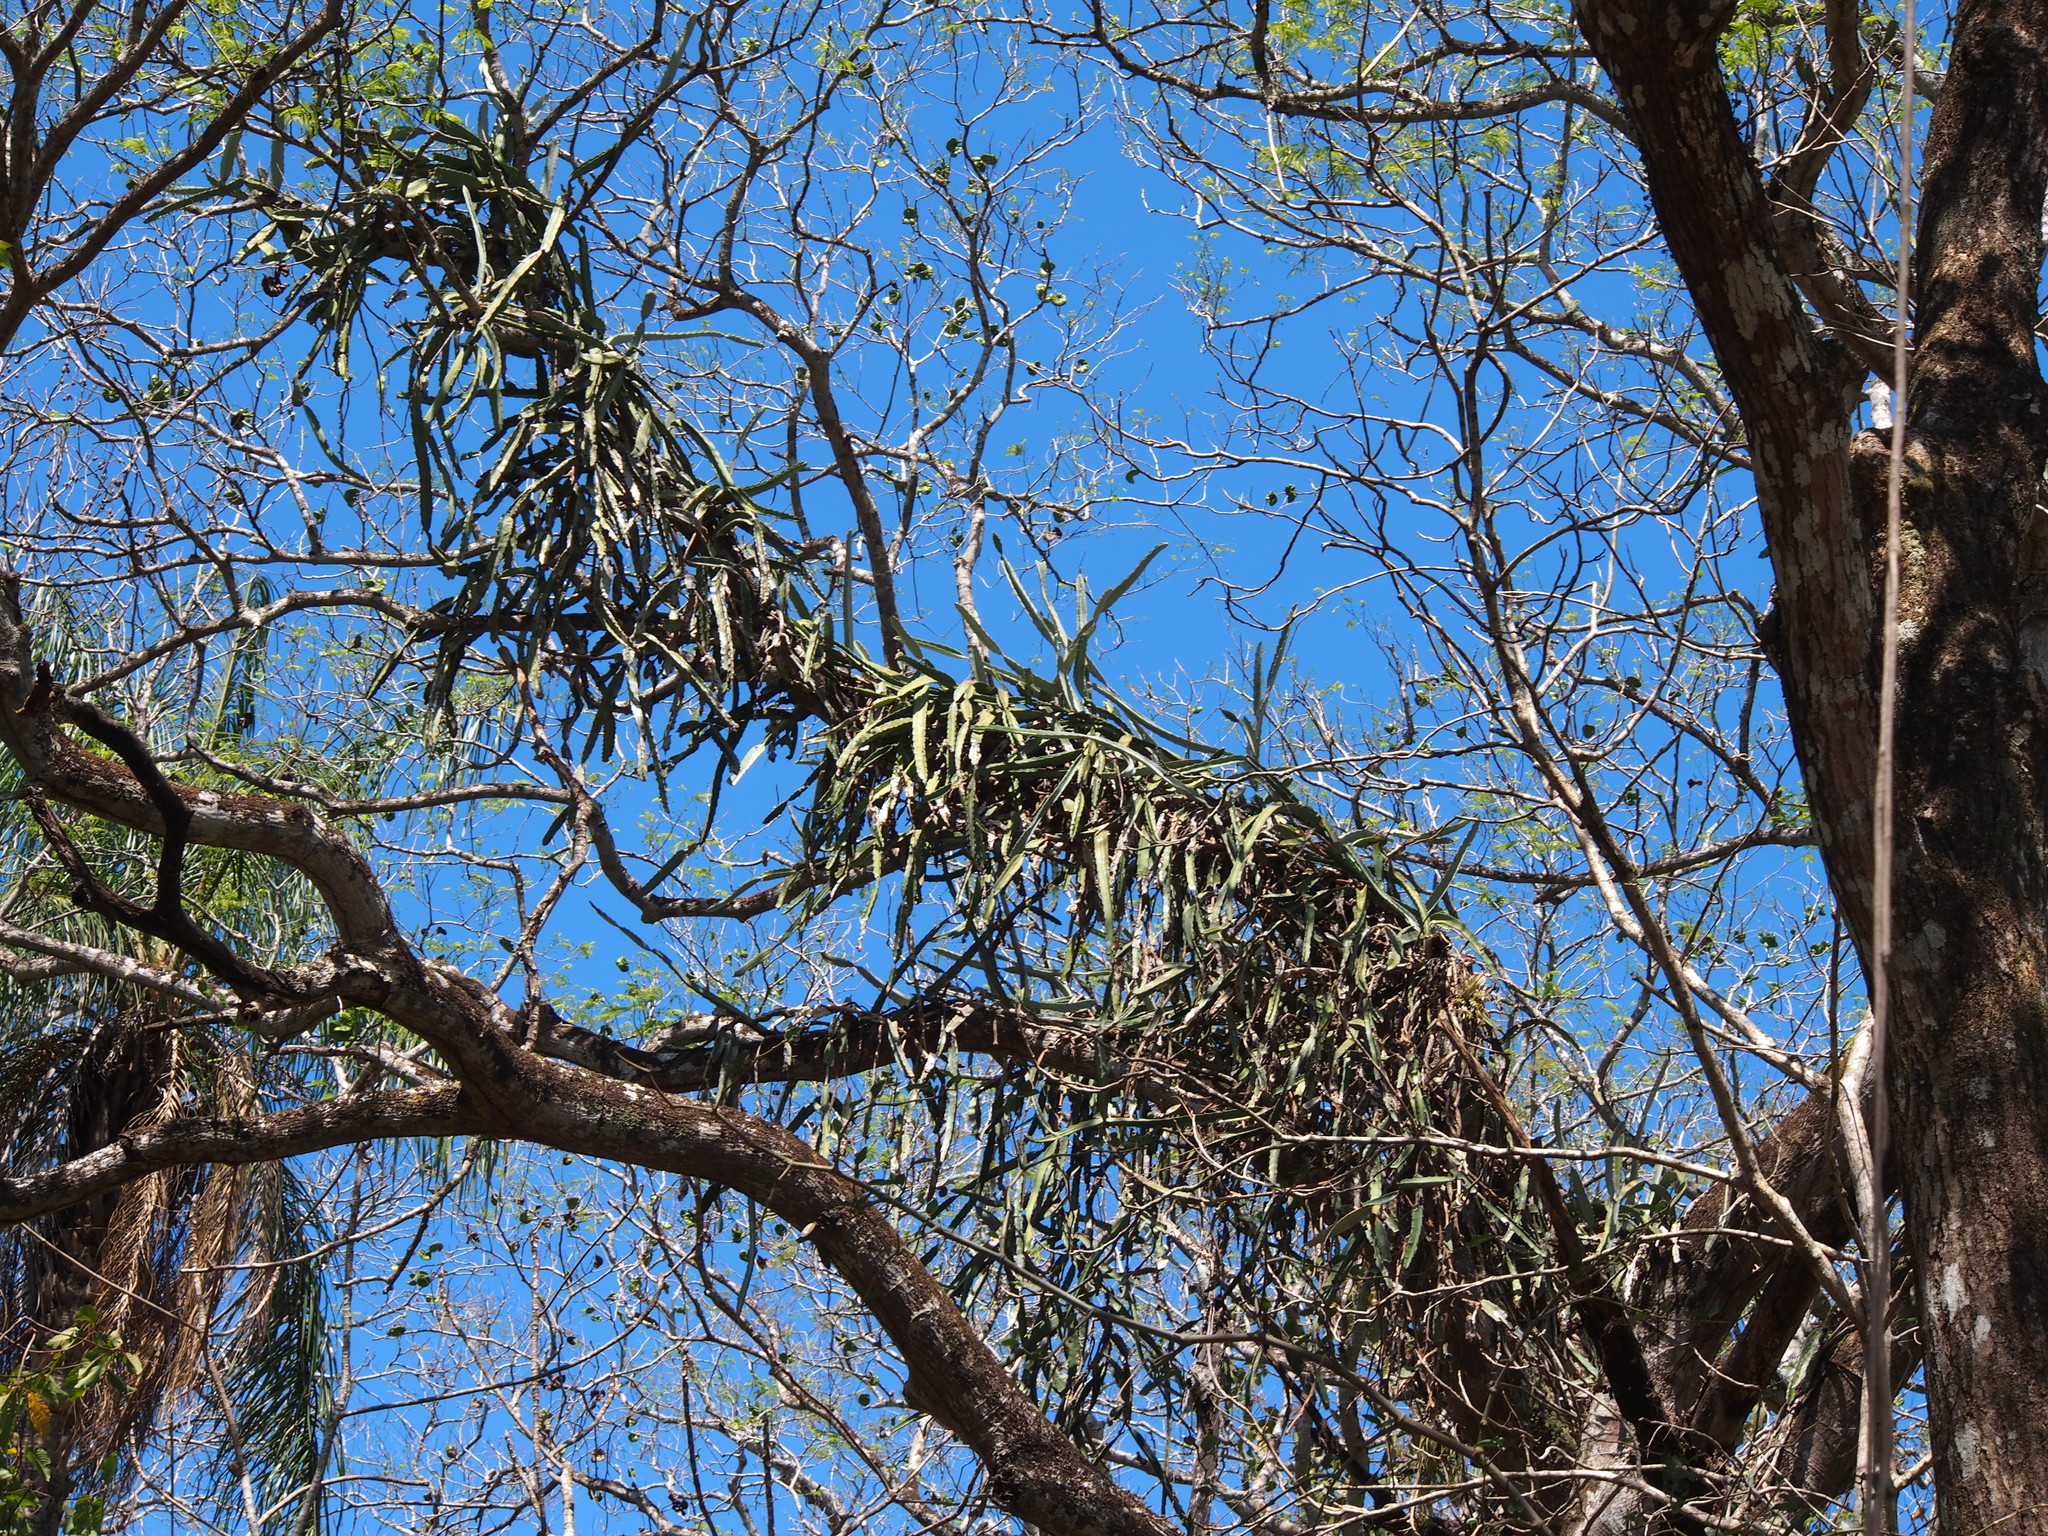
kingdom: Plantae
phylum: Tracheophyta
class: Magnoliopsida
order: Caryophyllales
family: Cactaceae
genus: Selenicereus
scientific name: Selenicereus costaricensis
